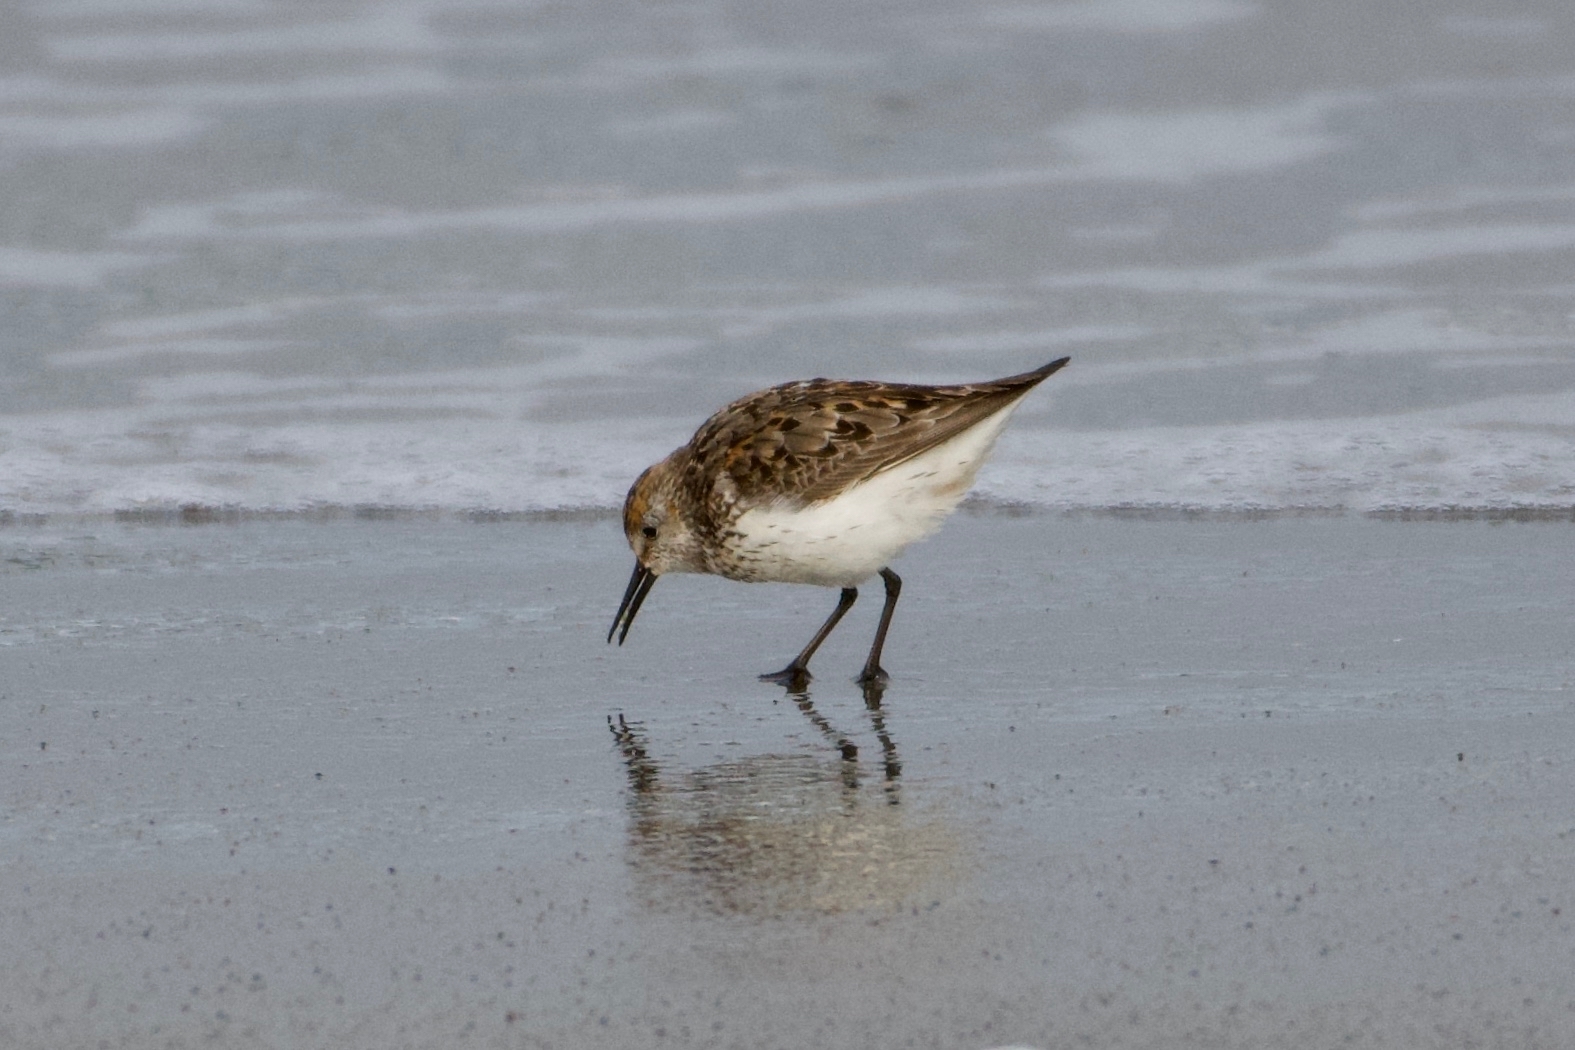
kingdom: Animalia
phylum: Chordata
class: Aves
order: Charadriiformes
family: Scolopacidae
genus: Calidris
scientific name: Calidris mauri
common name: Western sandpiper
